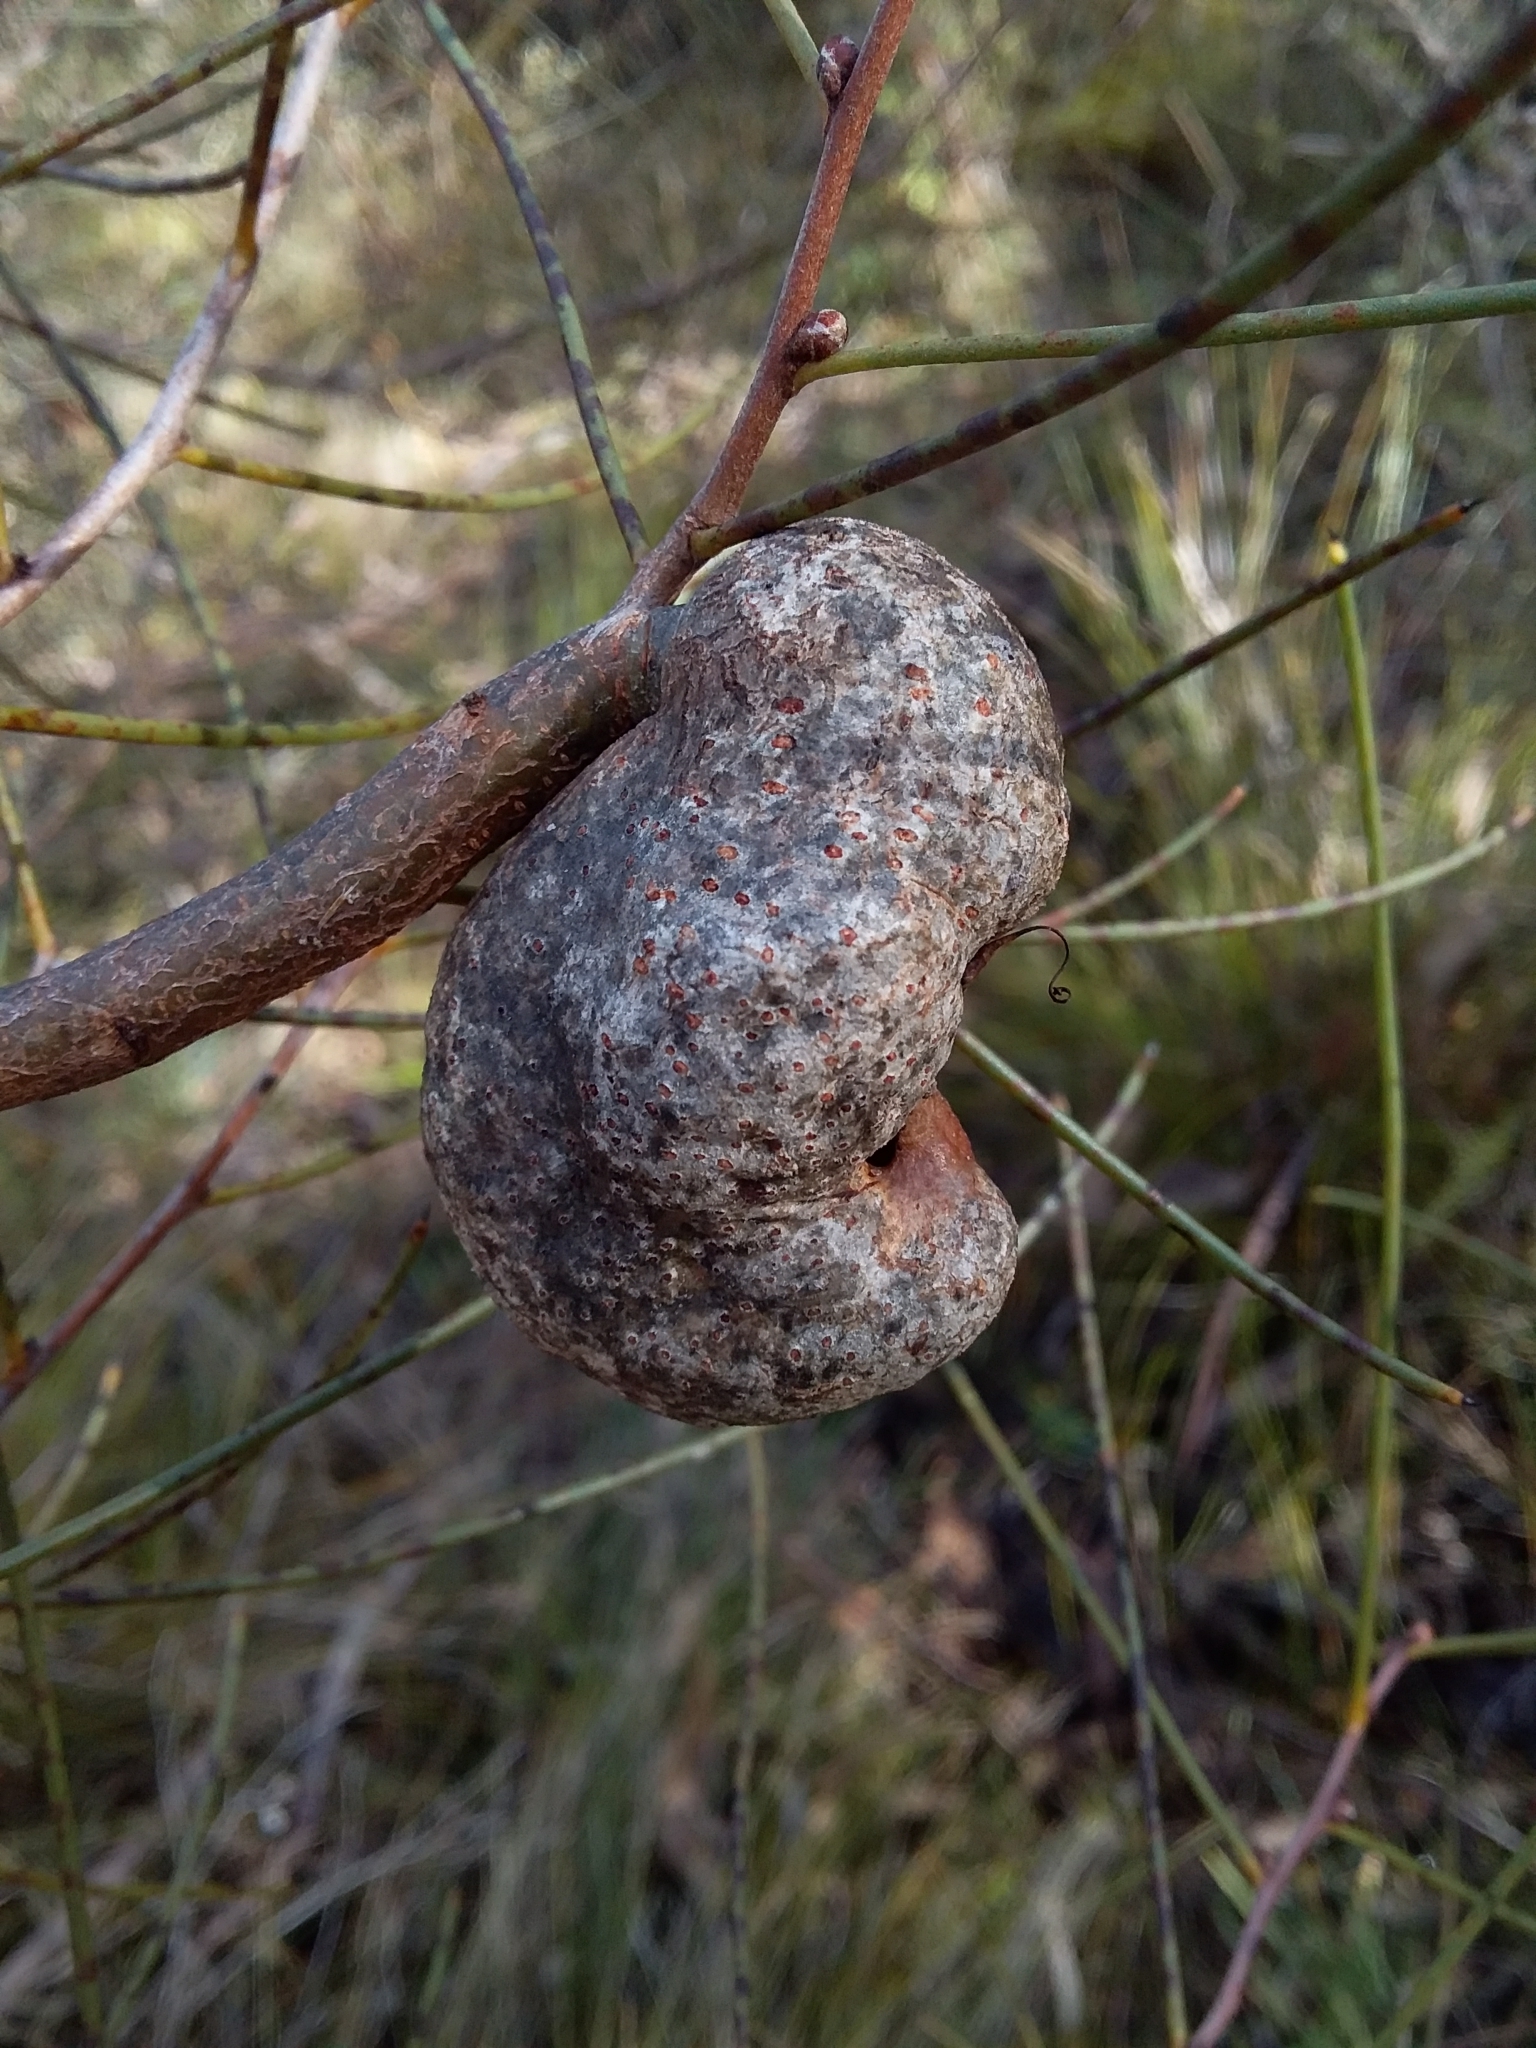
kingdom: Plantae
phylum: Tracheophyta
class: Magnoliopsida
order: Proteales
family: Proteaceae
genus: Hakea
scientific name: Hakea rostrata
